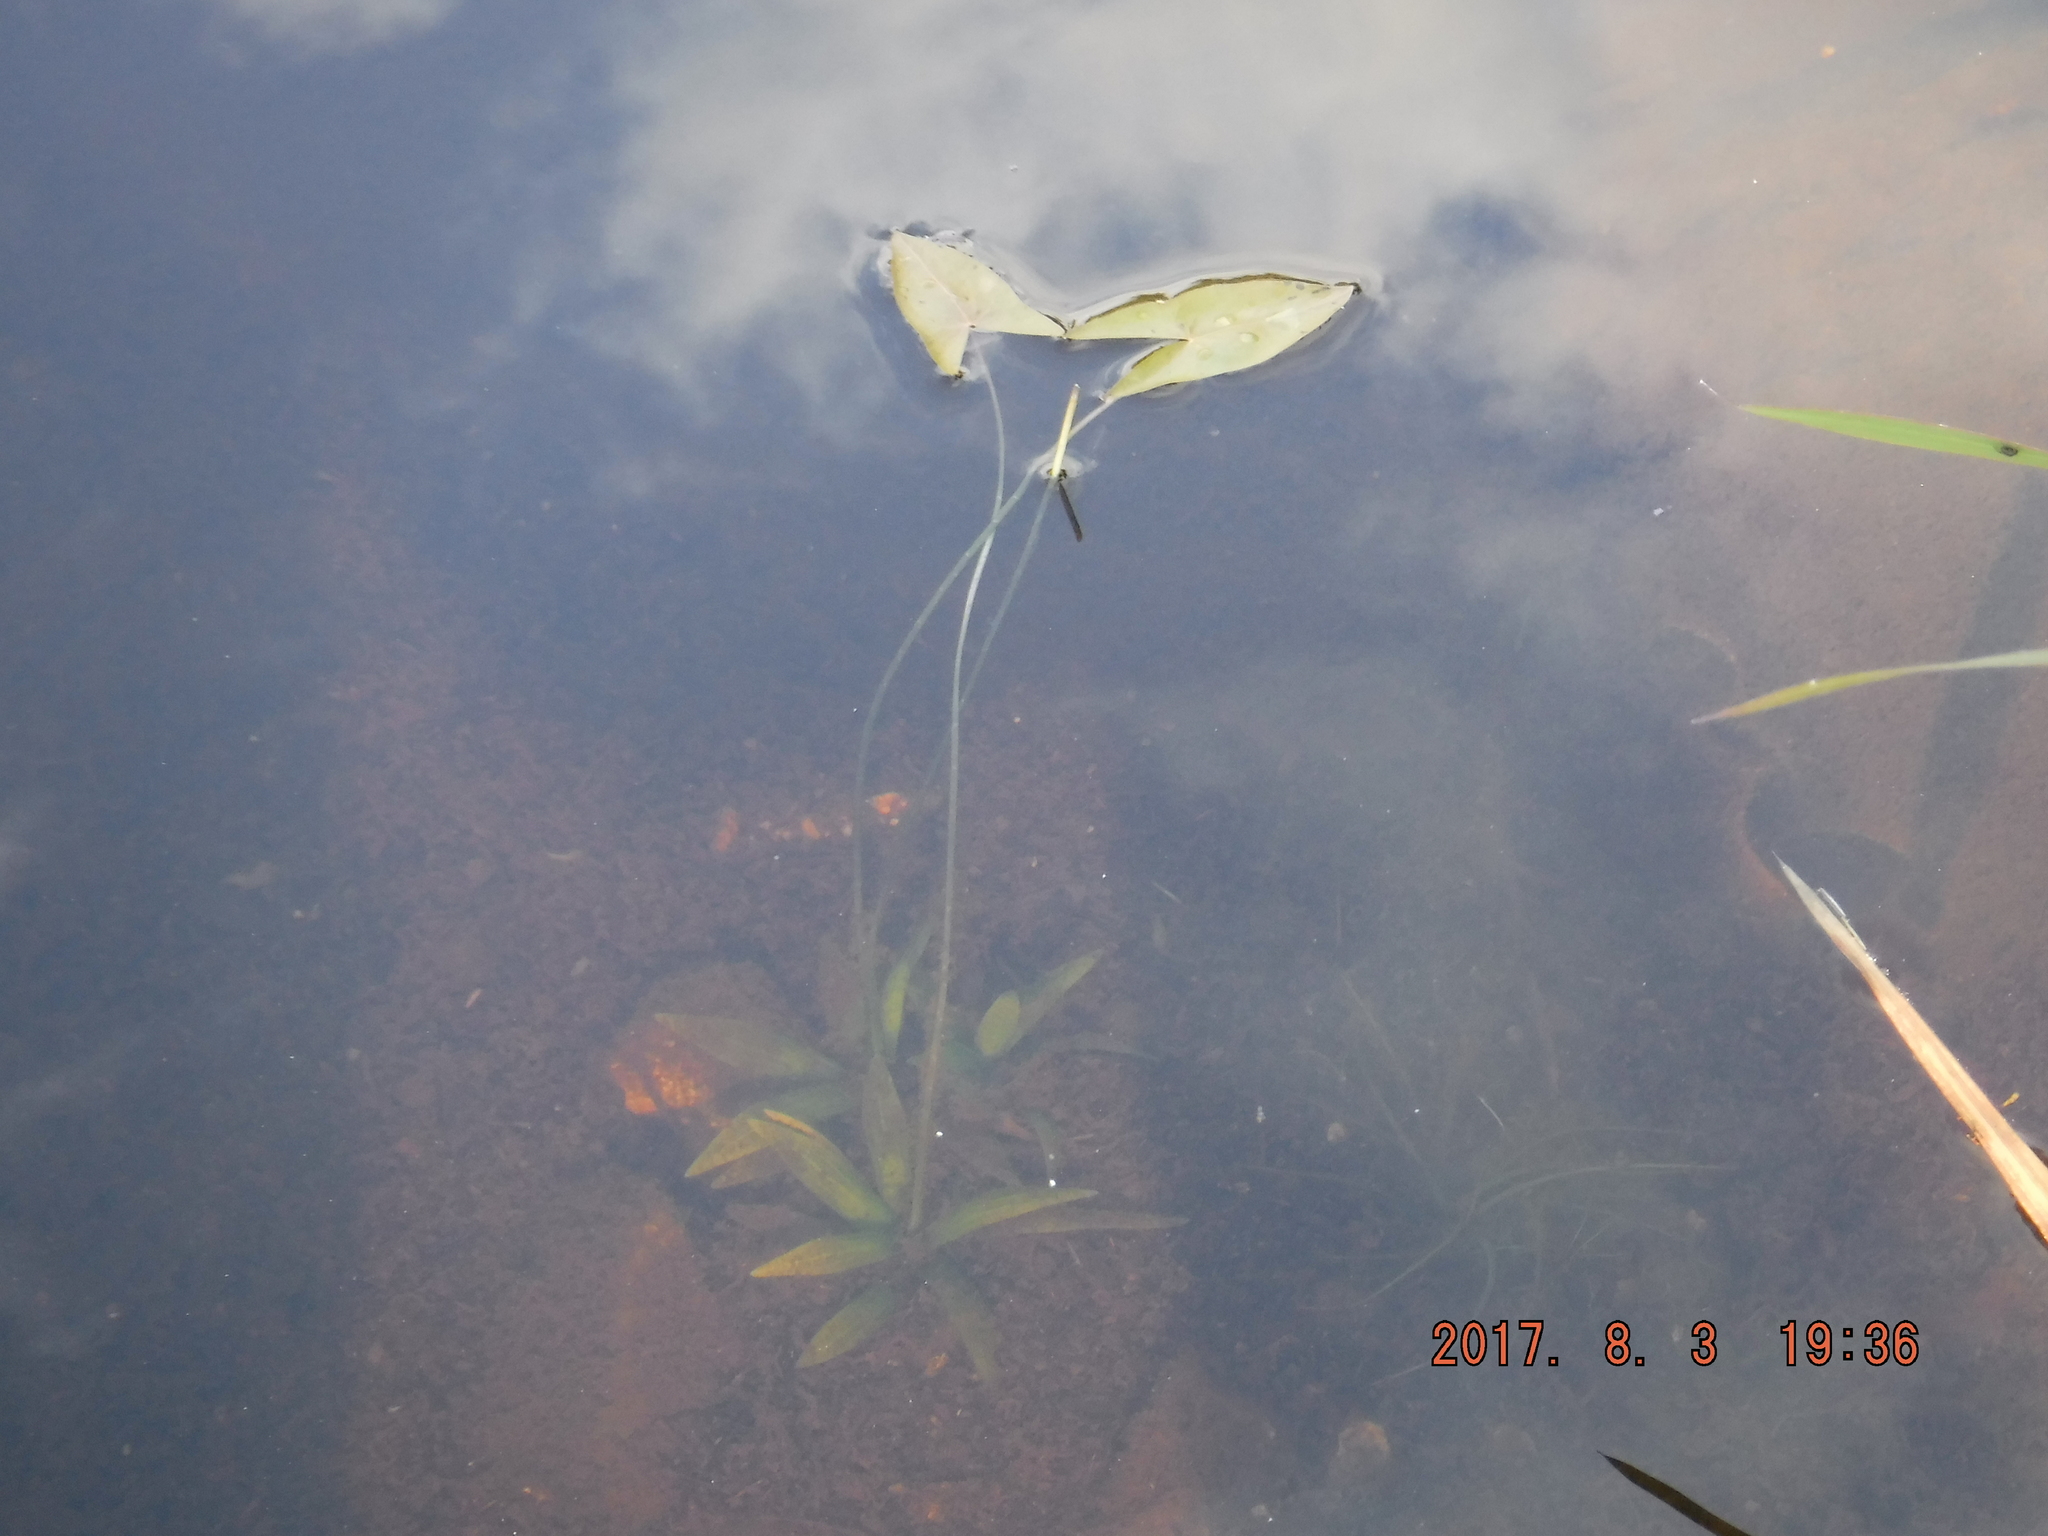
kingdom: Plantae
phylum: Tracheophyta
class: Liliopsida
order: Alismatales
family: Alismataceae
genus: Sagittaria
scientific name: Sagittaria cuneata
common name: Northern arrowhead
